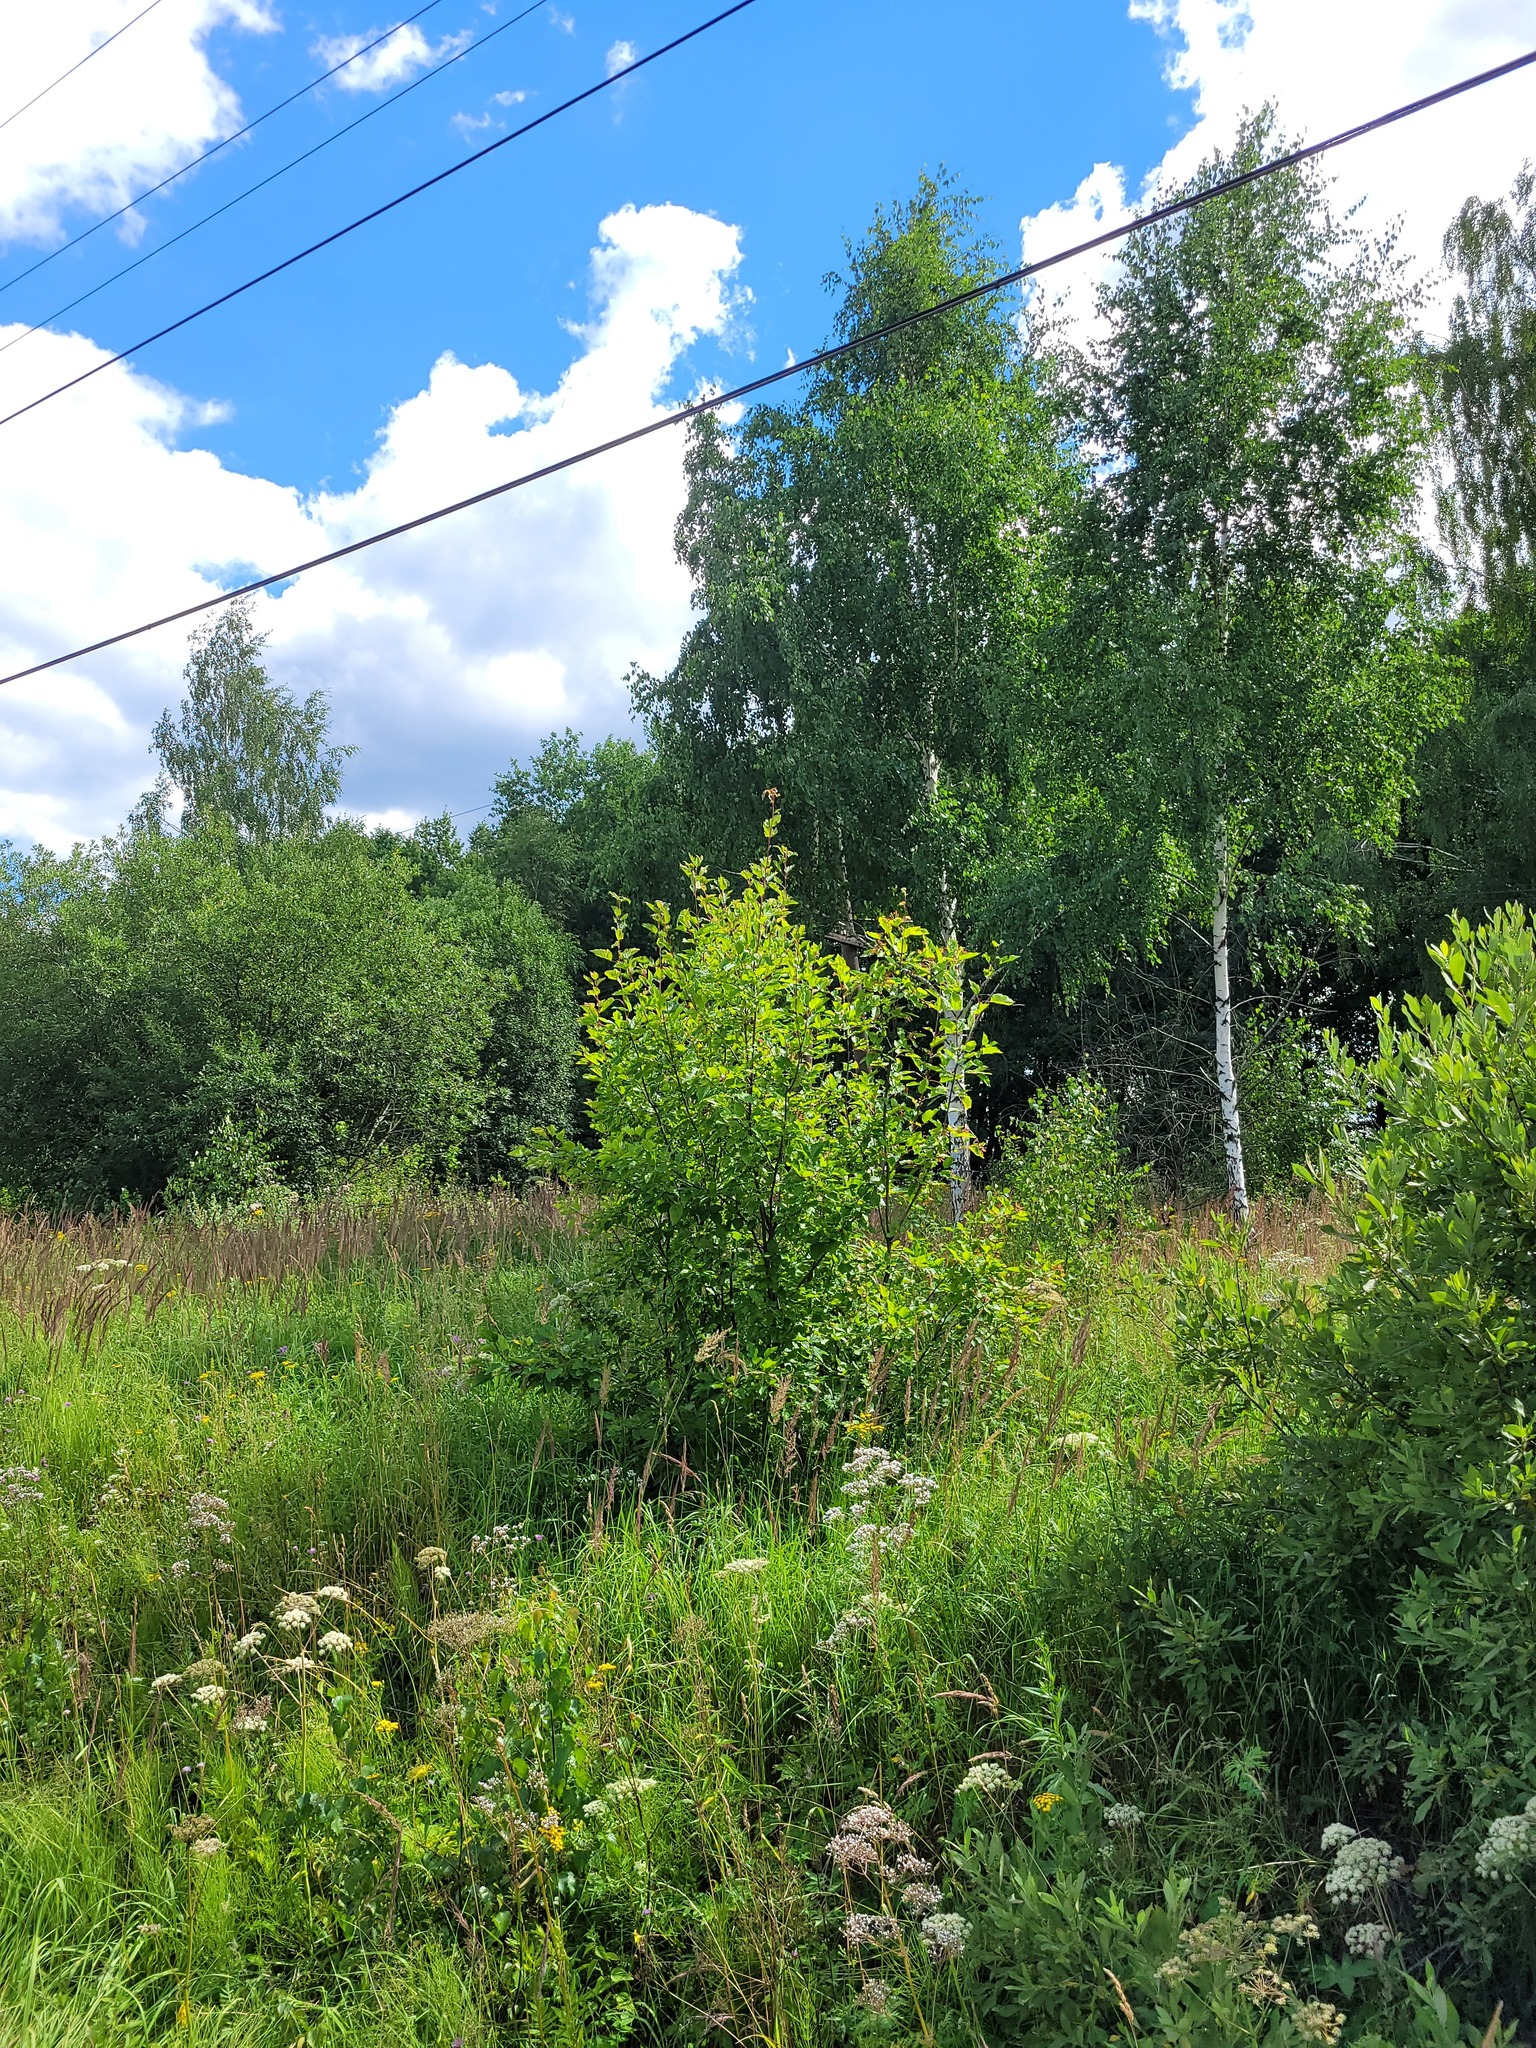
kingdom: Plantae
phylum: Tracheophyta
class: Magnoliopsida
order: Sapindales
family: Sapindaceae
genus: Acer
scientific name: Acer tataricum
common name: Tartar maple
